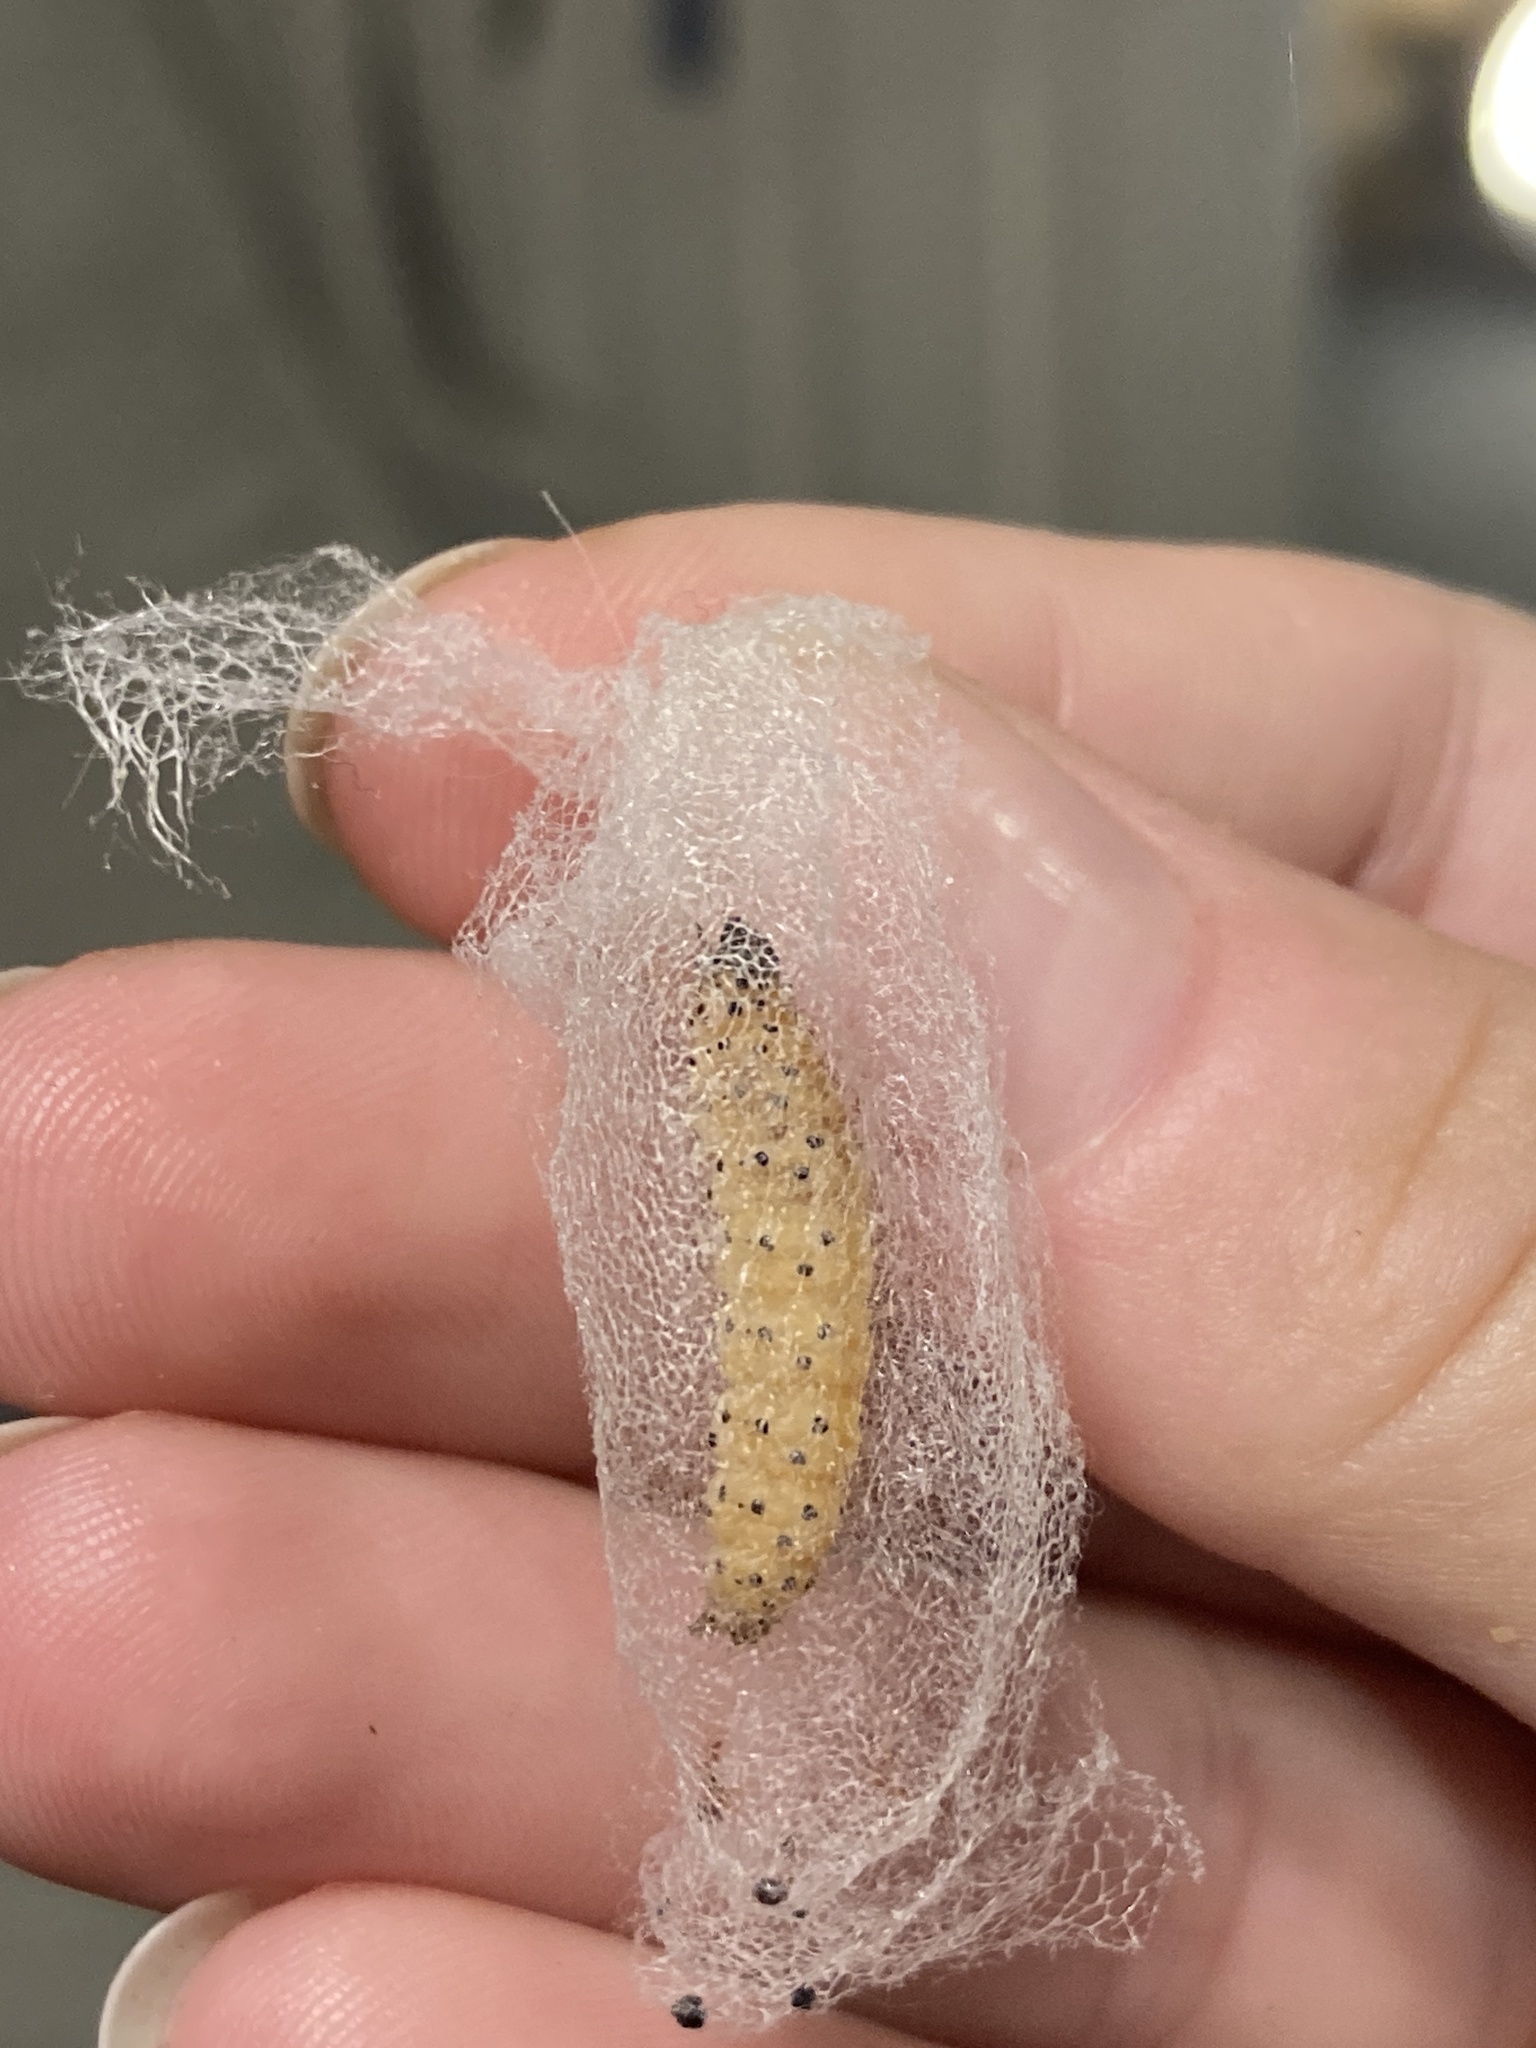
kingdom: Animalia
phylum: Arthropoda
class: Insecta
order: Lepidoptera
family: Crambidae
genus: Saucrobotys
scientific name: Saucrobotys futilalis
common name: Dogbane saucrobotys moth
